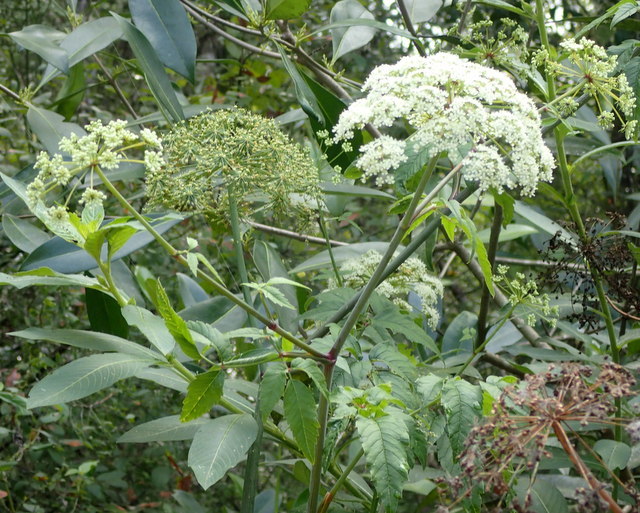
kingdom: Plantae
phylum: Tracheophyta
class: Magnoliopsida
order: Apiales
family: Apiaceae
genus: Cicuta
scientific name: Cicuta maculata
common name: Spotted cowbane
